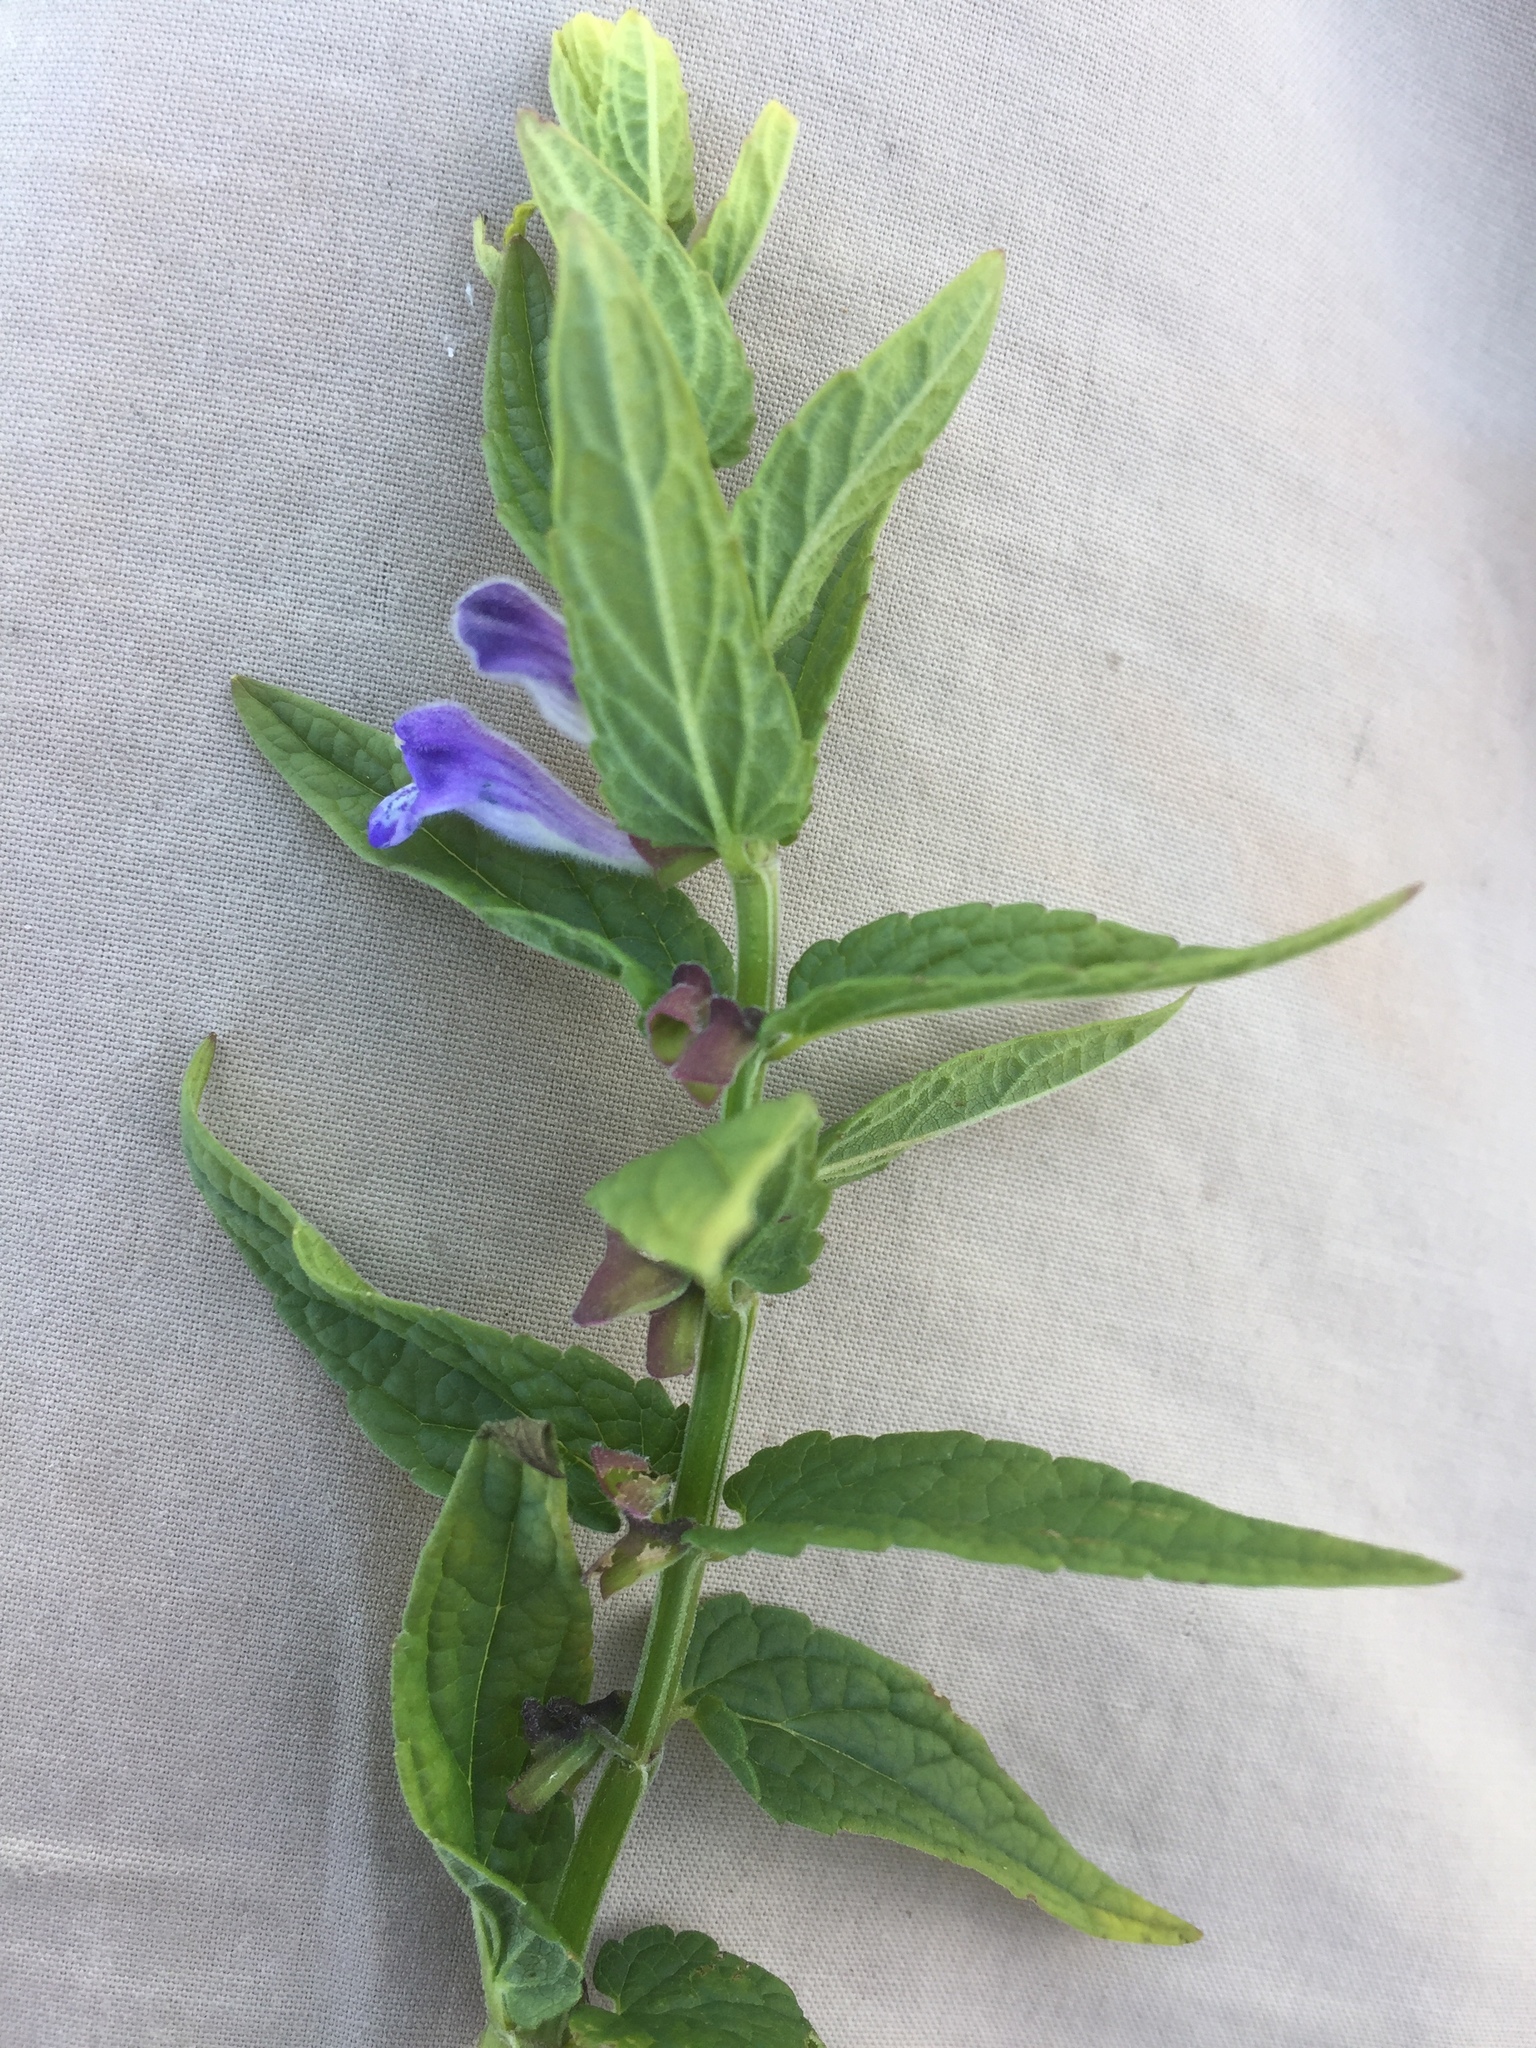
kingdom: Plantae
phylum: Tracheophyta
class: Magnoliopsida
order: Lamiales
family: Lamiaceae
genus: Scutellaria
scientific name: Scutellaria galericulata
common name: Skullcap
